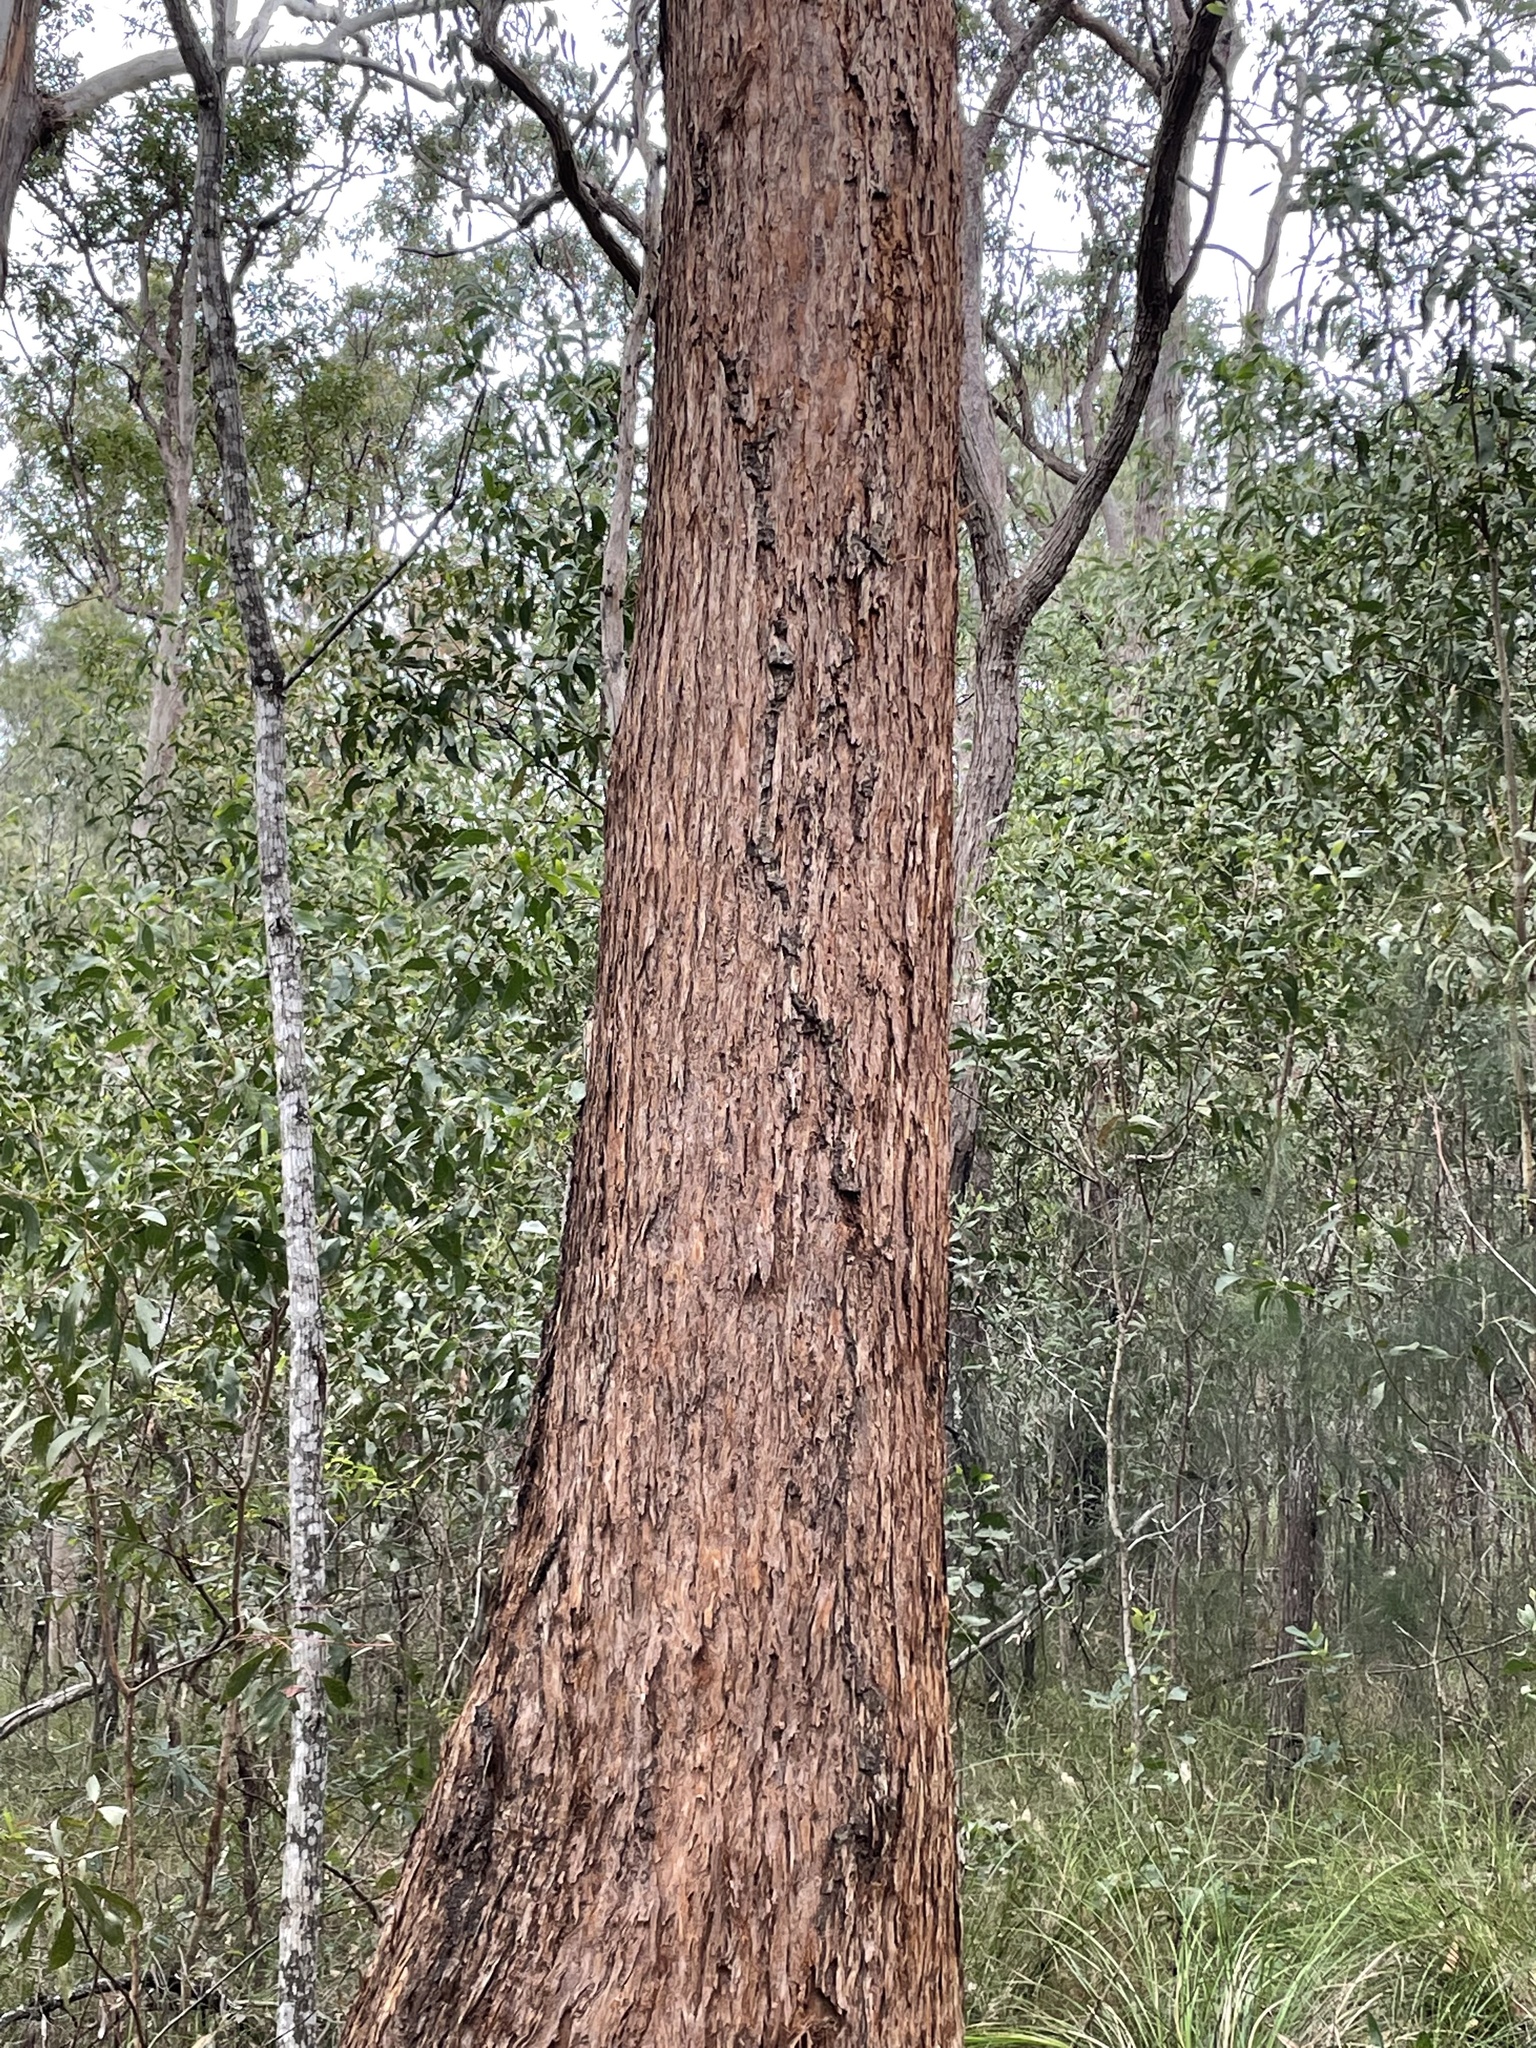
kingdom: Plantae
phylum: Tracheophyta
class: Magnoliopsida
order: Myrtales
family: Myrtaceae
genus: Eucalyptus
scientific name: Eucalyptus microcorys
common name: Tallowwood
